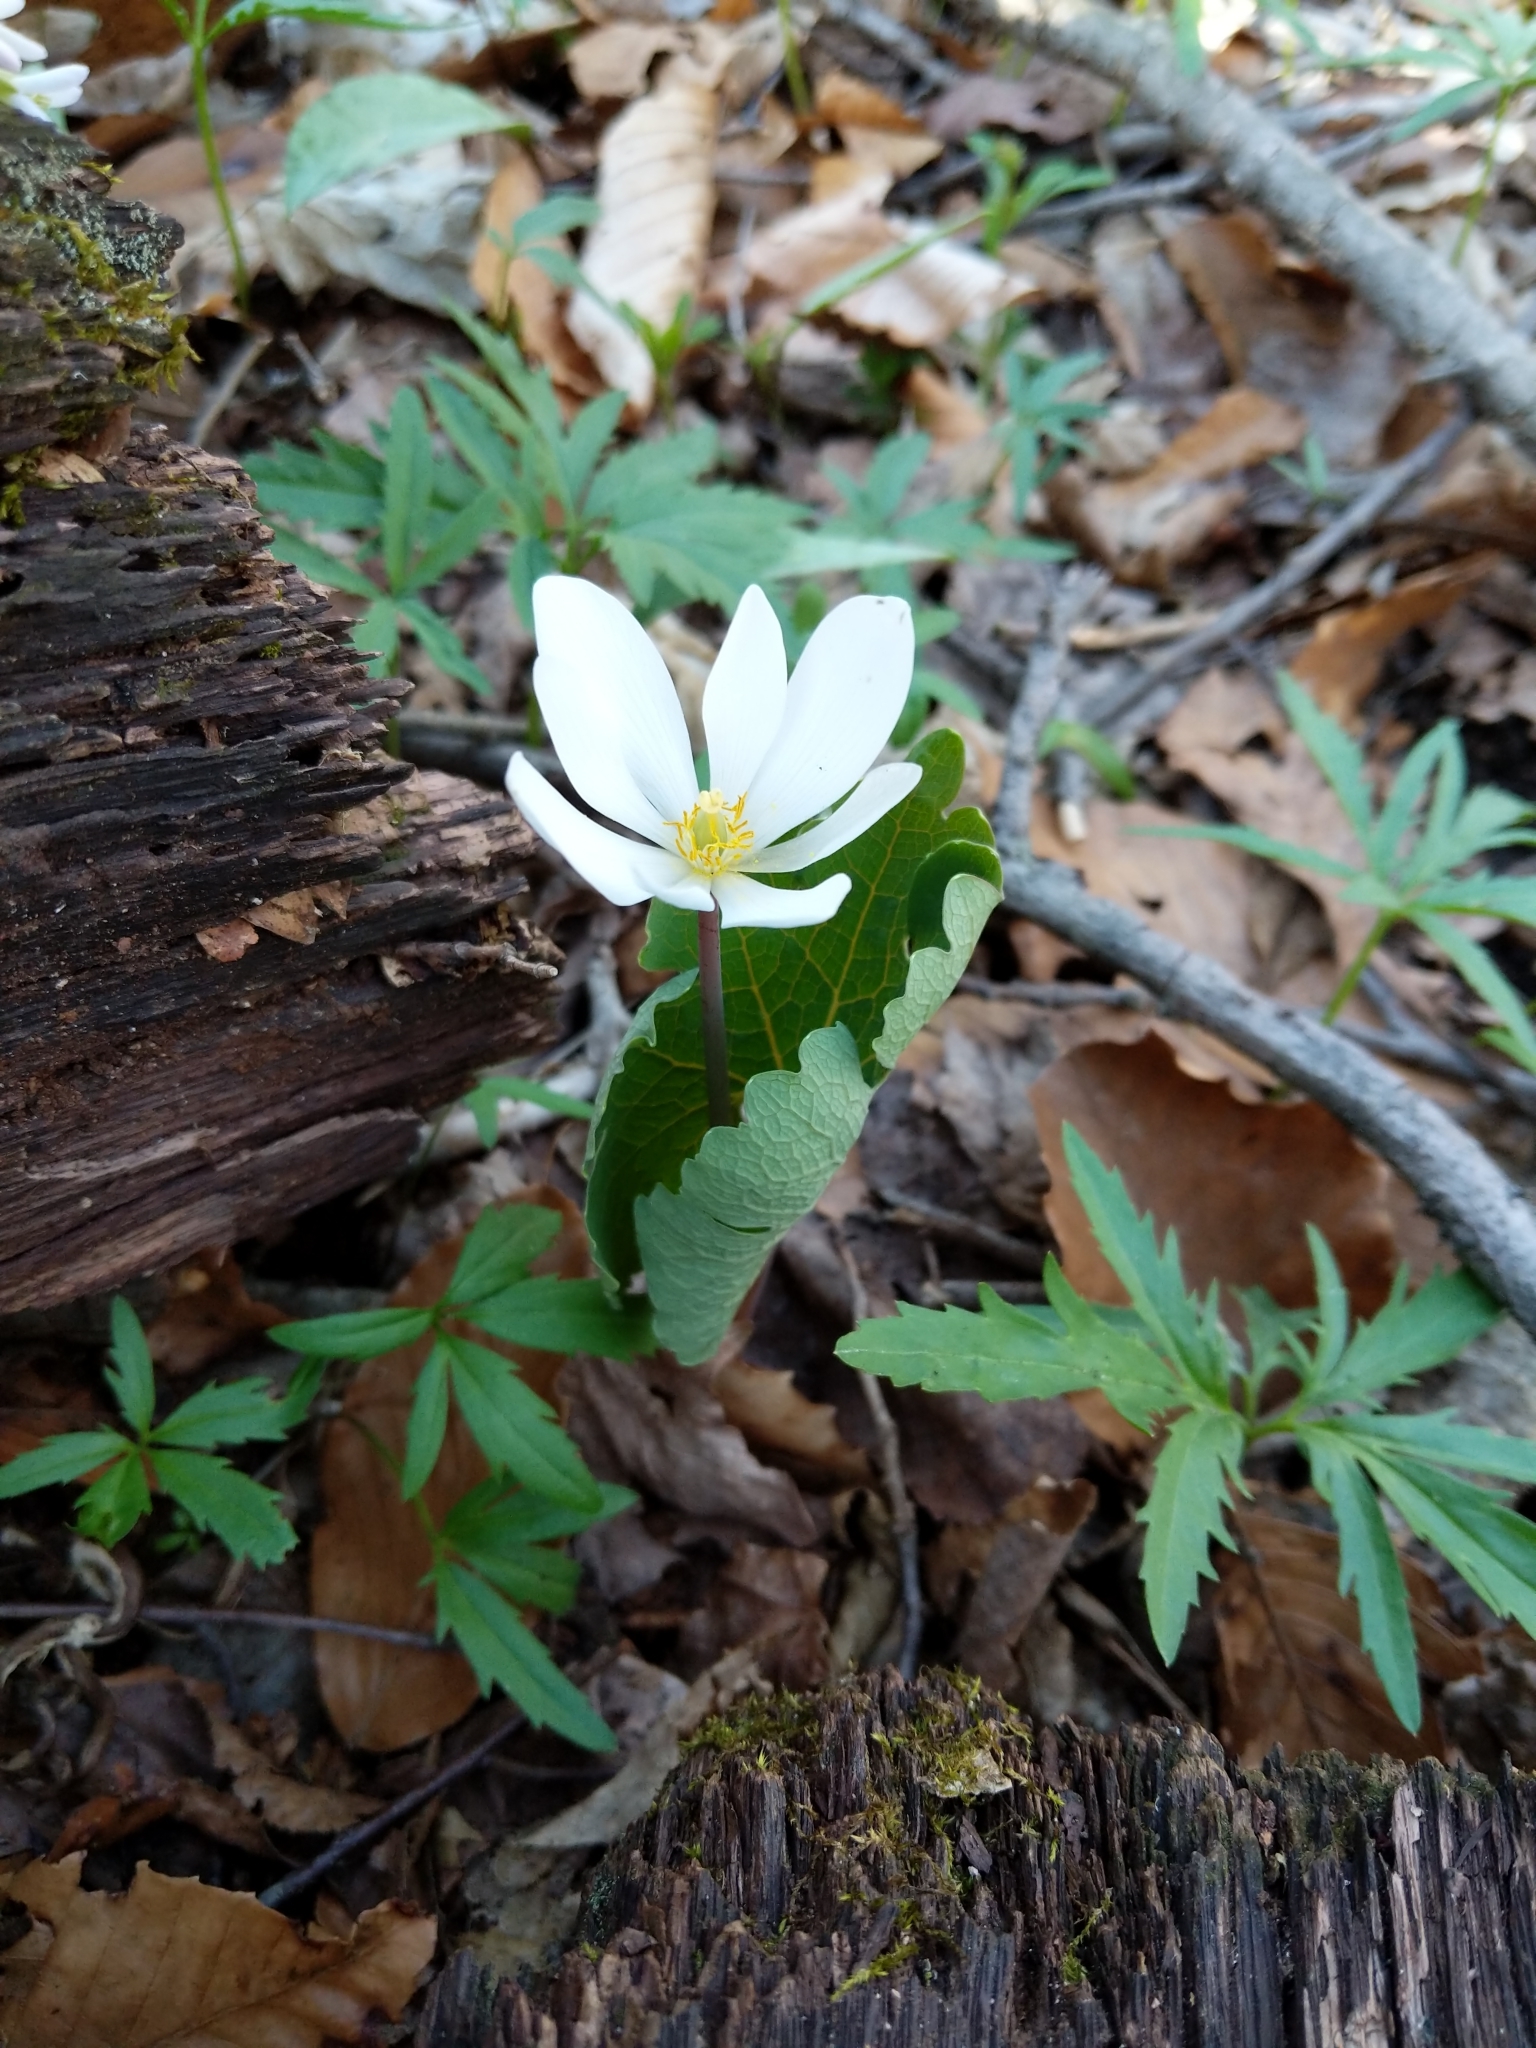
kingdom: Plantae
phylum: Tracheophyta
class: Magnoliopsida
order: Ranunculales
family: Papaveraceae
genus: Sanguinaria
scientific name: Sanguinaria canadensis
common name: Bloodroot
